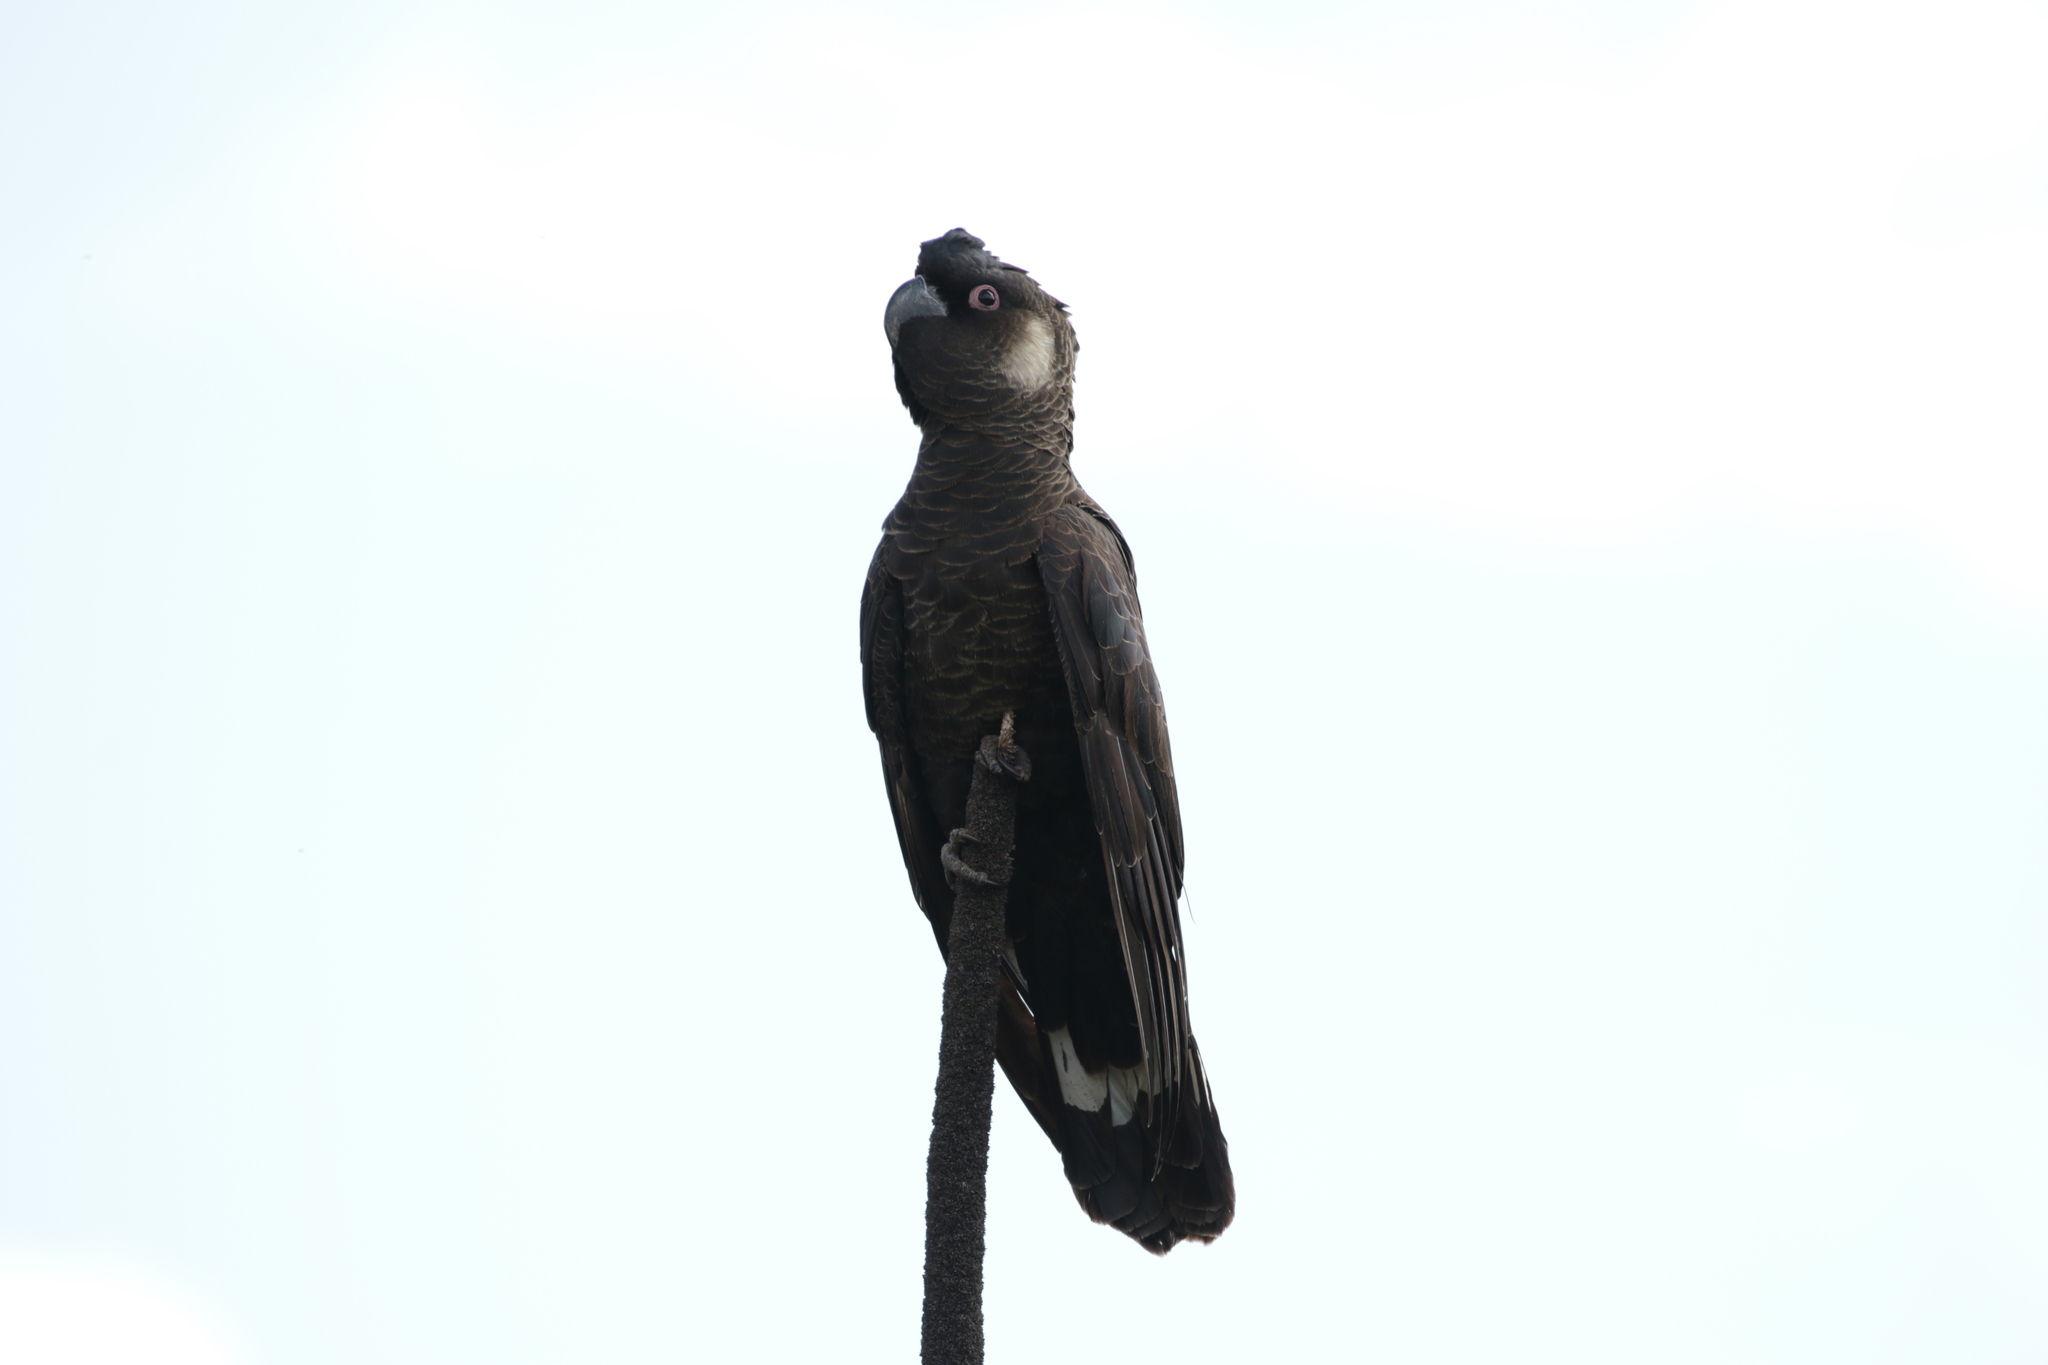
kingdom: Animalia
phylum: Chordata
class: Aves
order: Psittaciformes
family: Cacatuidae
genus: Zanda
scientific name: Zanda latirostris
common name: Short-billed black-cockatoo
